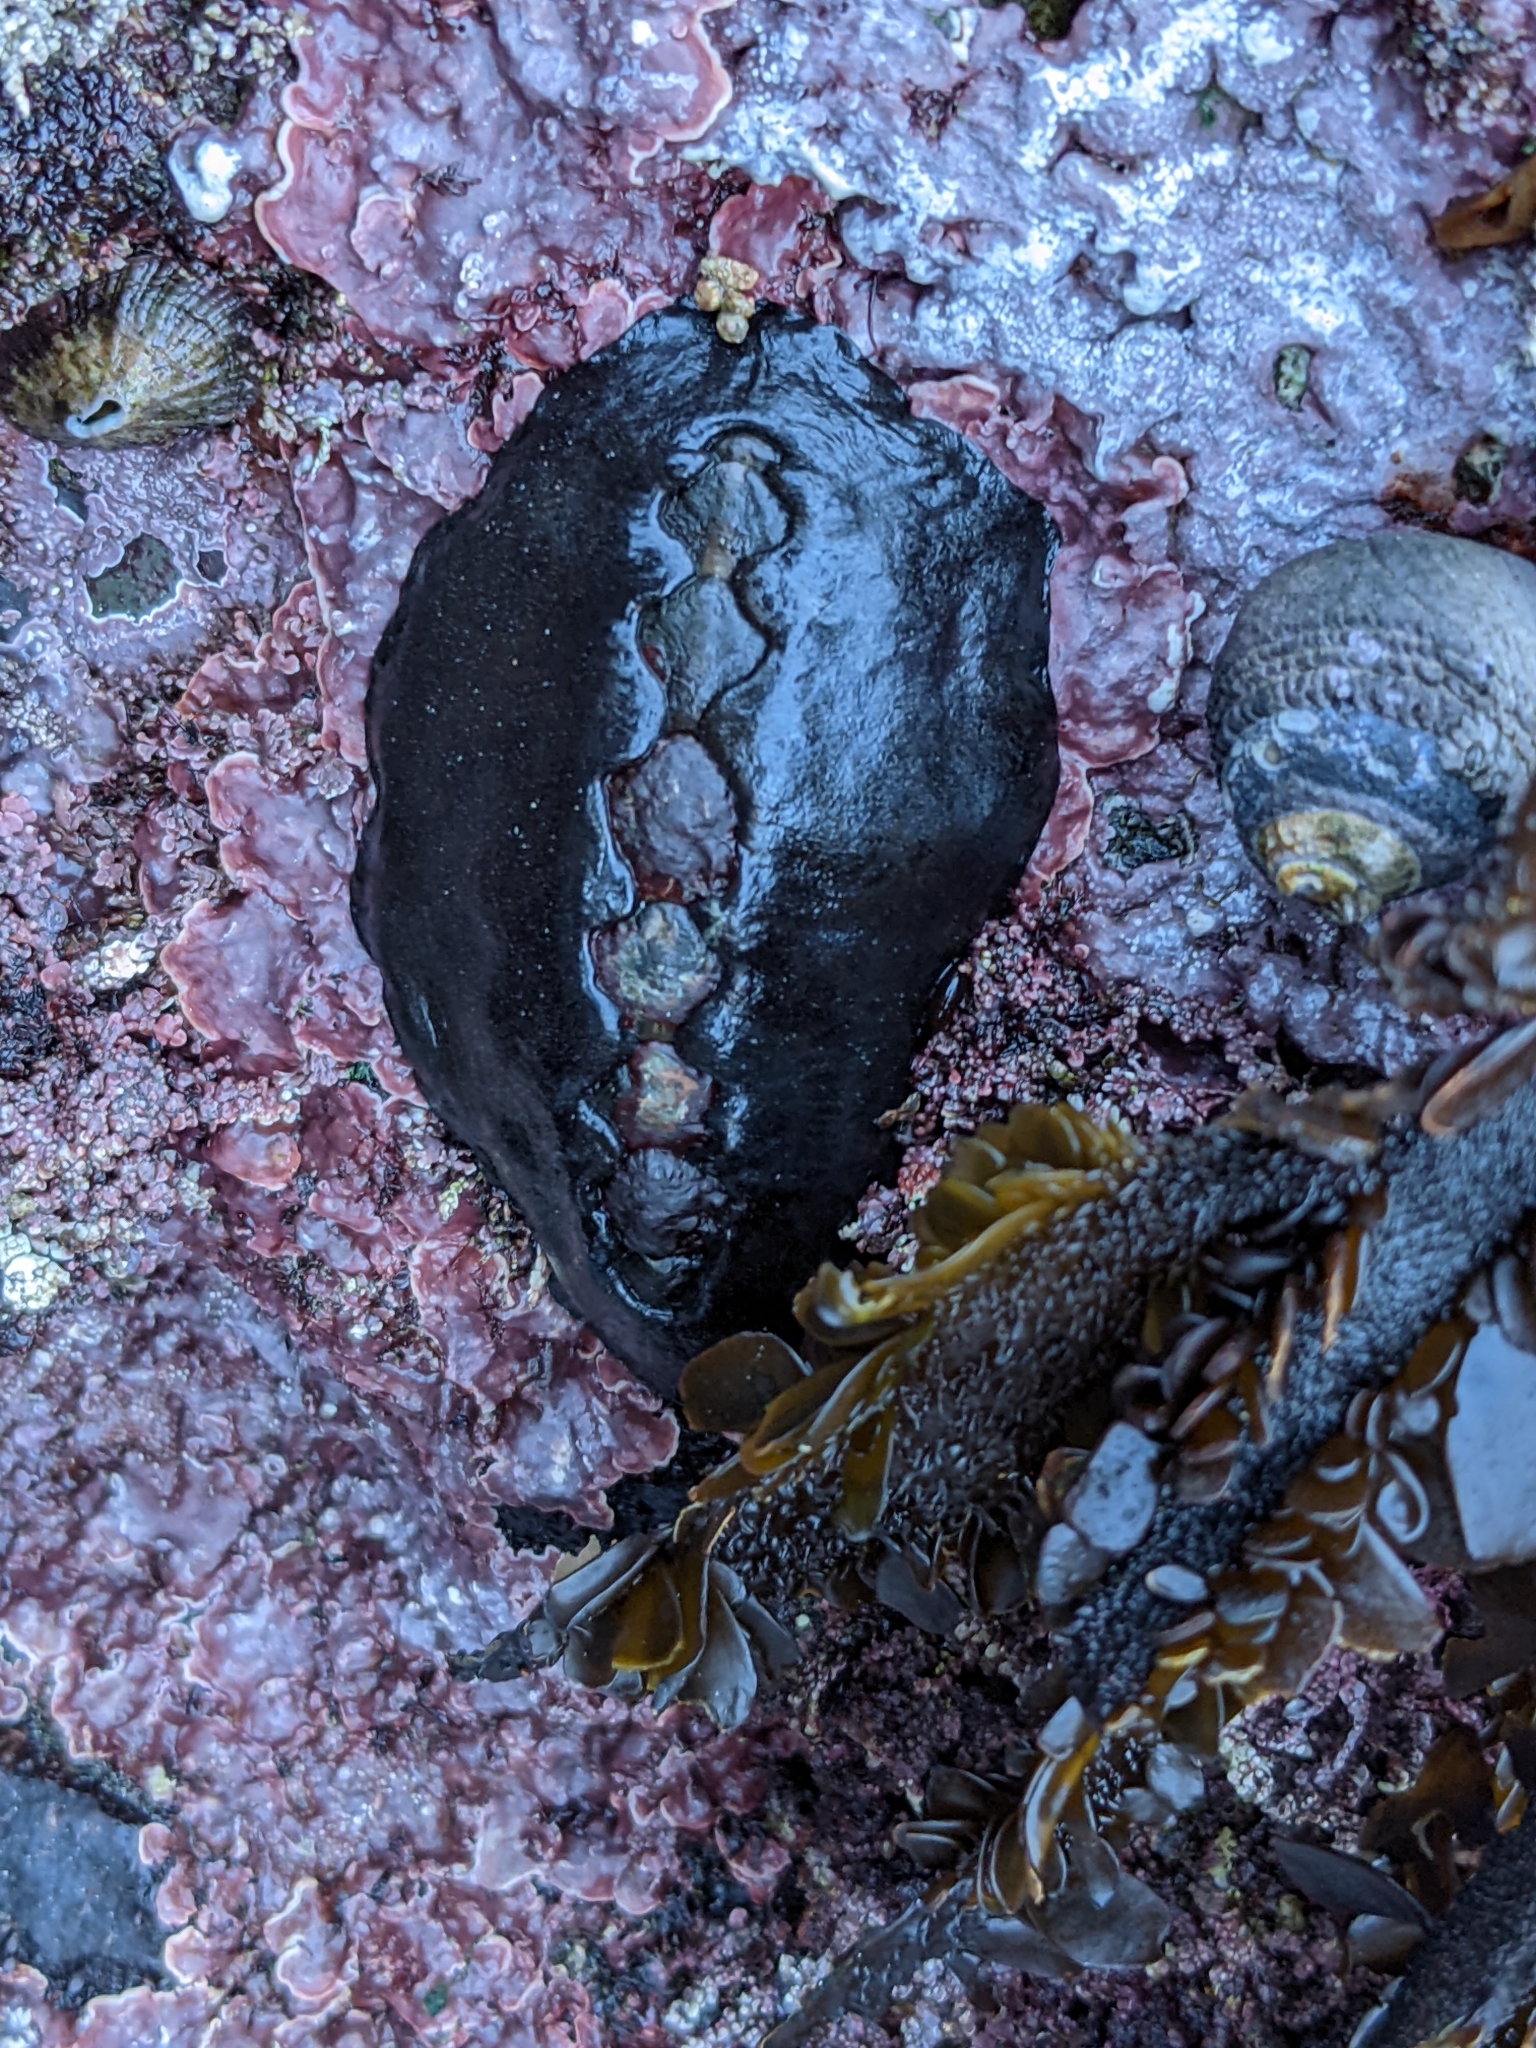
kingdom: Animalia
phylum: Mollusca
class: Polyplacophora
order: Chitonida
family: Mopaliidae
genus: Katharina
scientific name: Katharina tunicata
